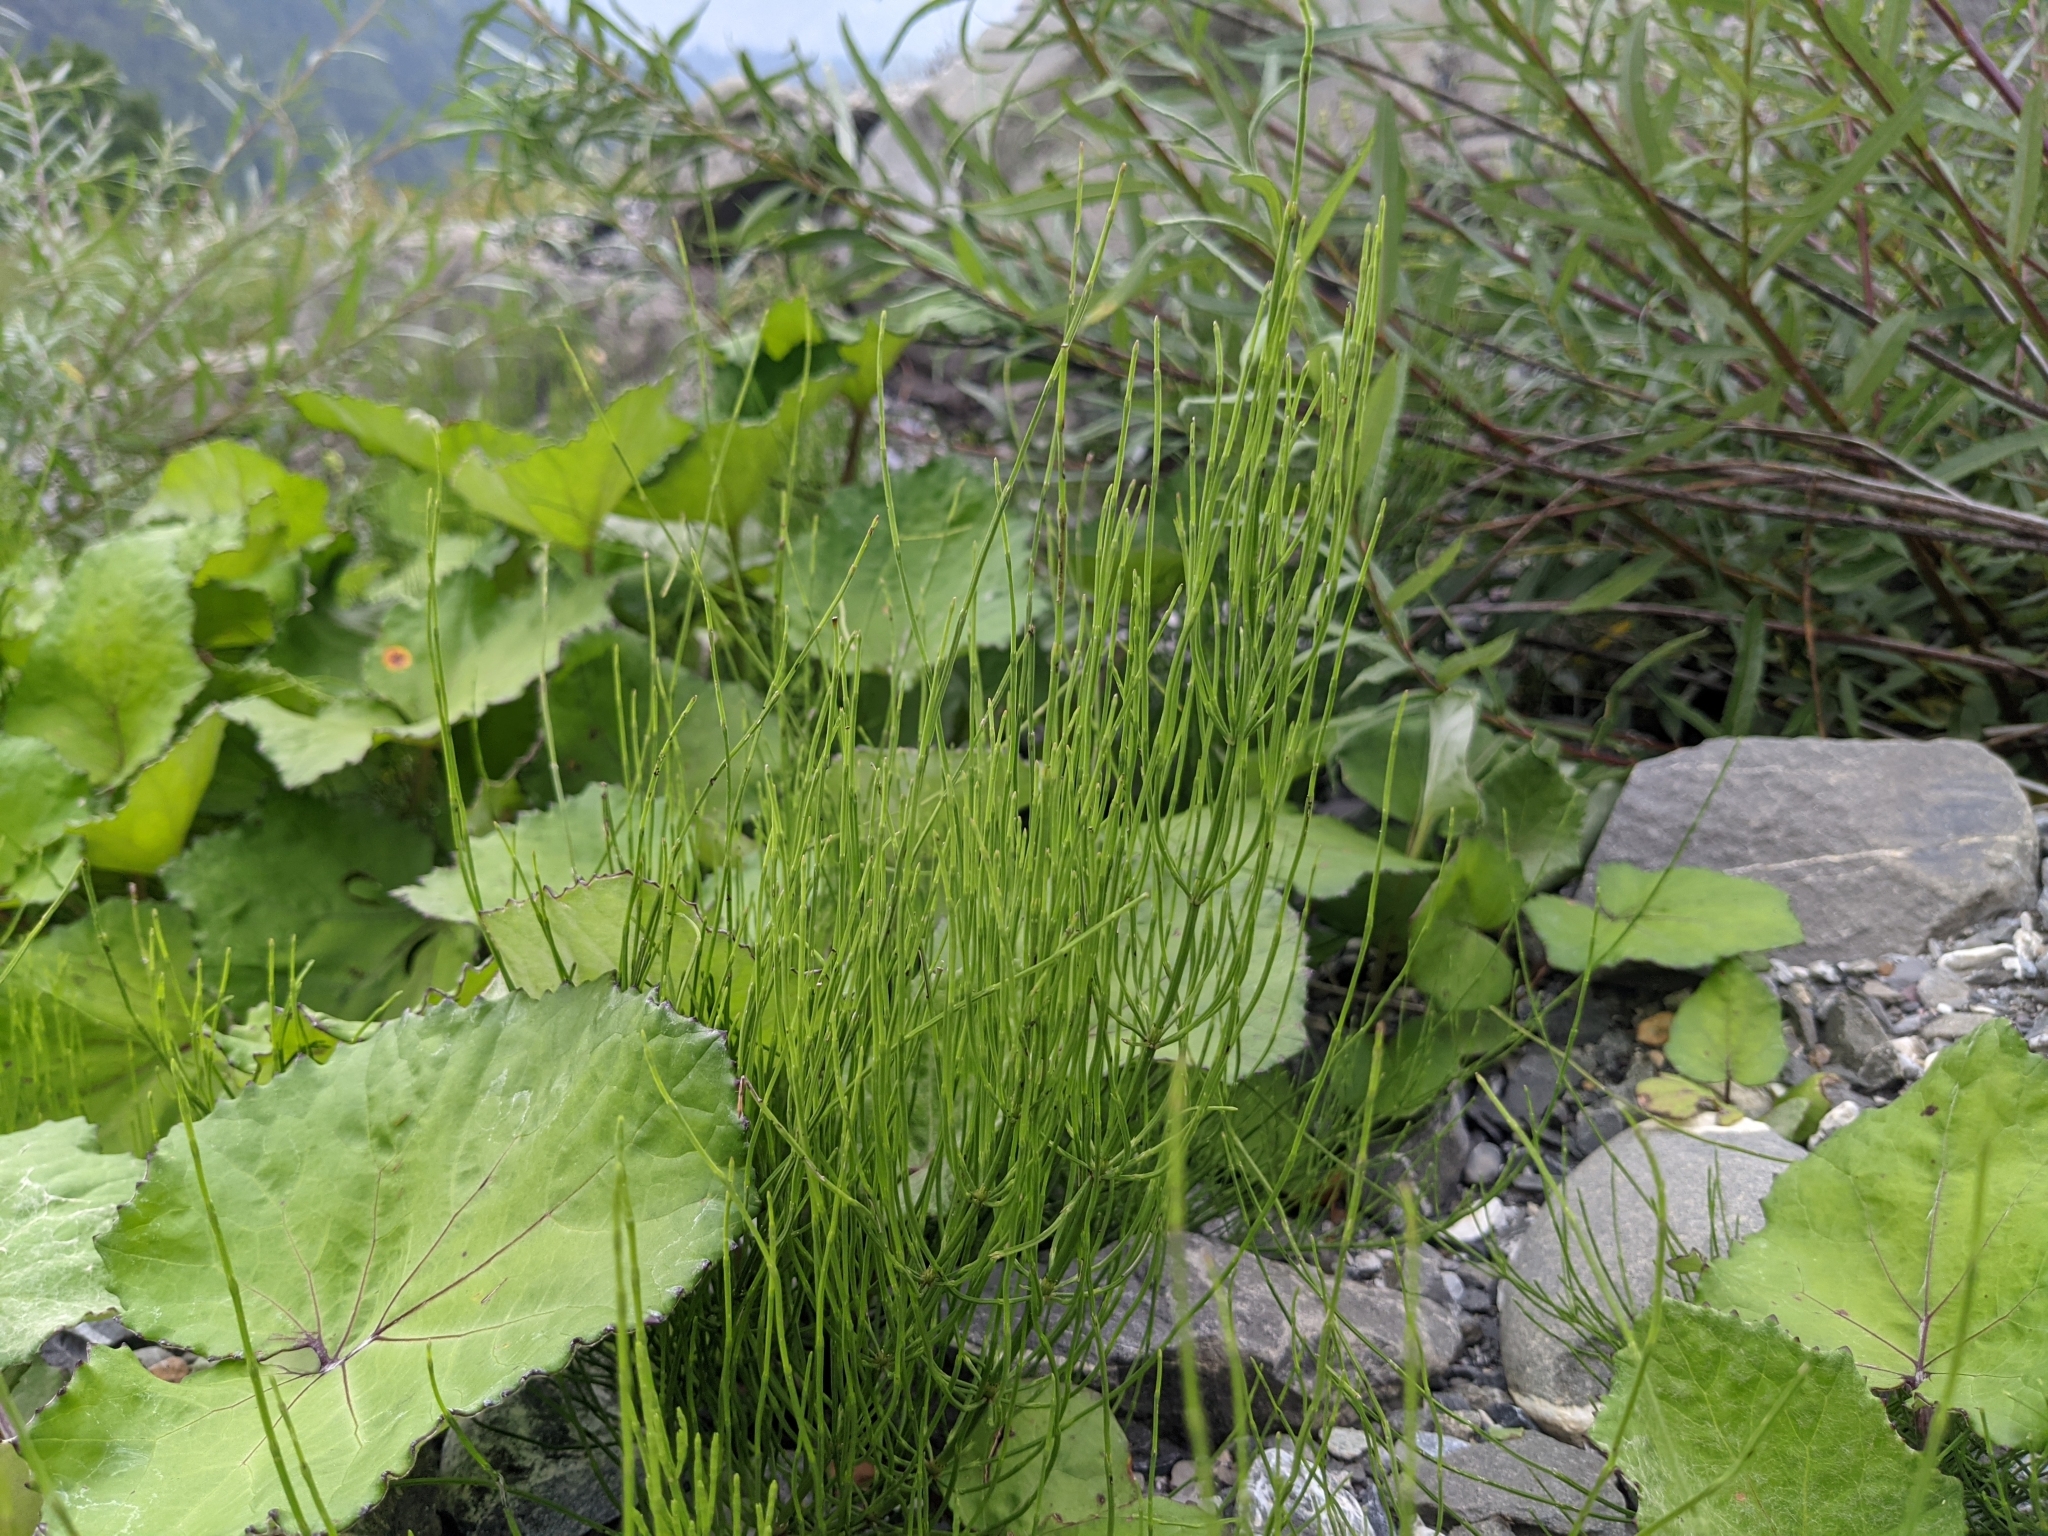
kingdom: Plantae
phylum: Tracheophyta
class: Polypodiopsida
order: Equisetales
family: Equisetaceae
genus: Equisetum
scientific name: Equisetum arvense
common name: Field horsetail
